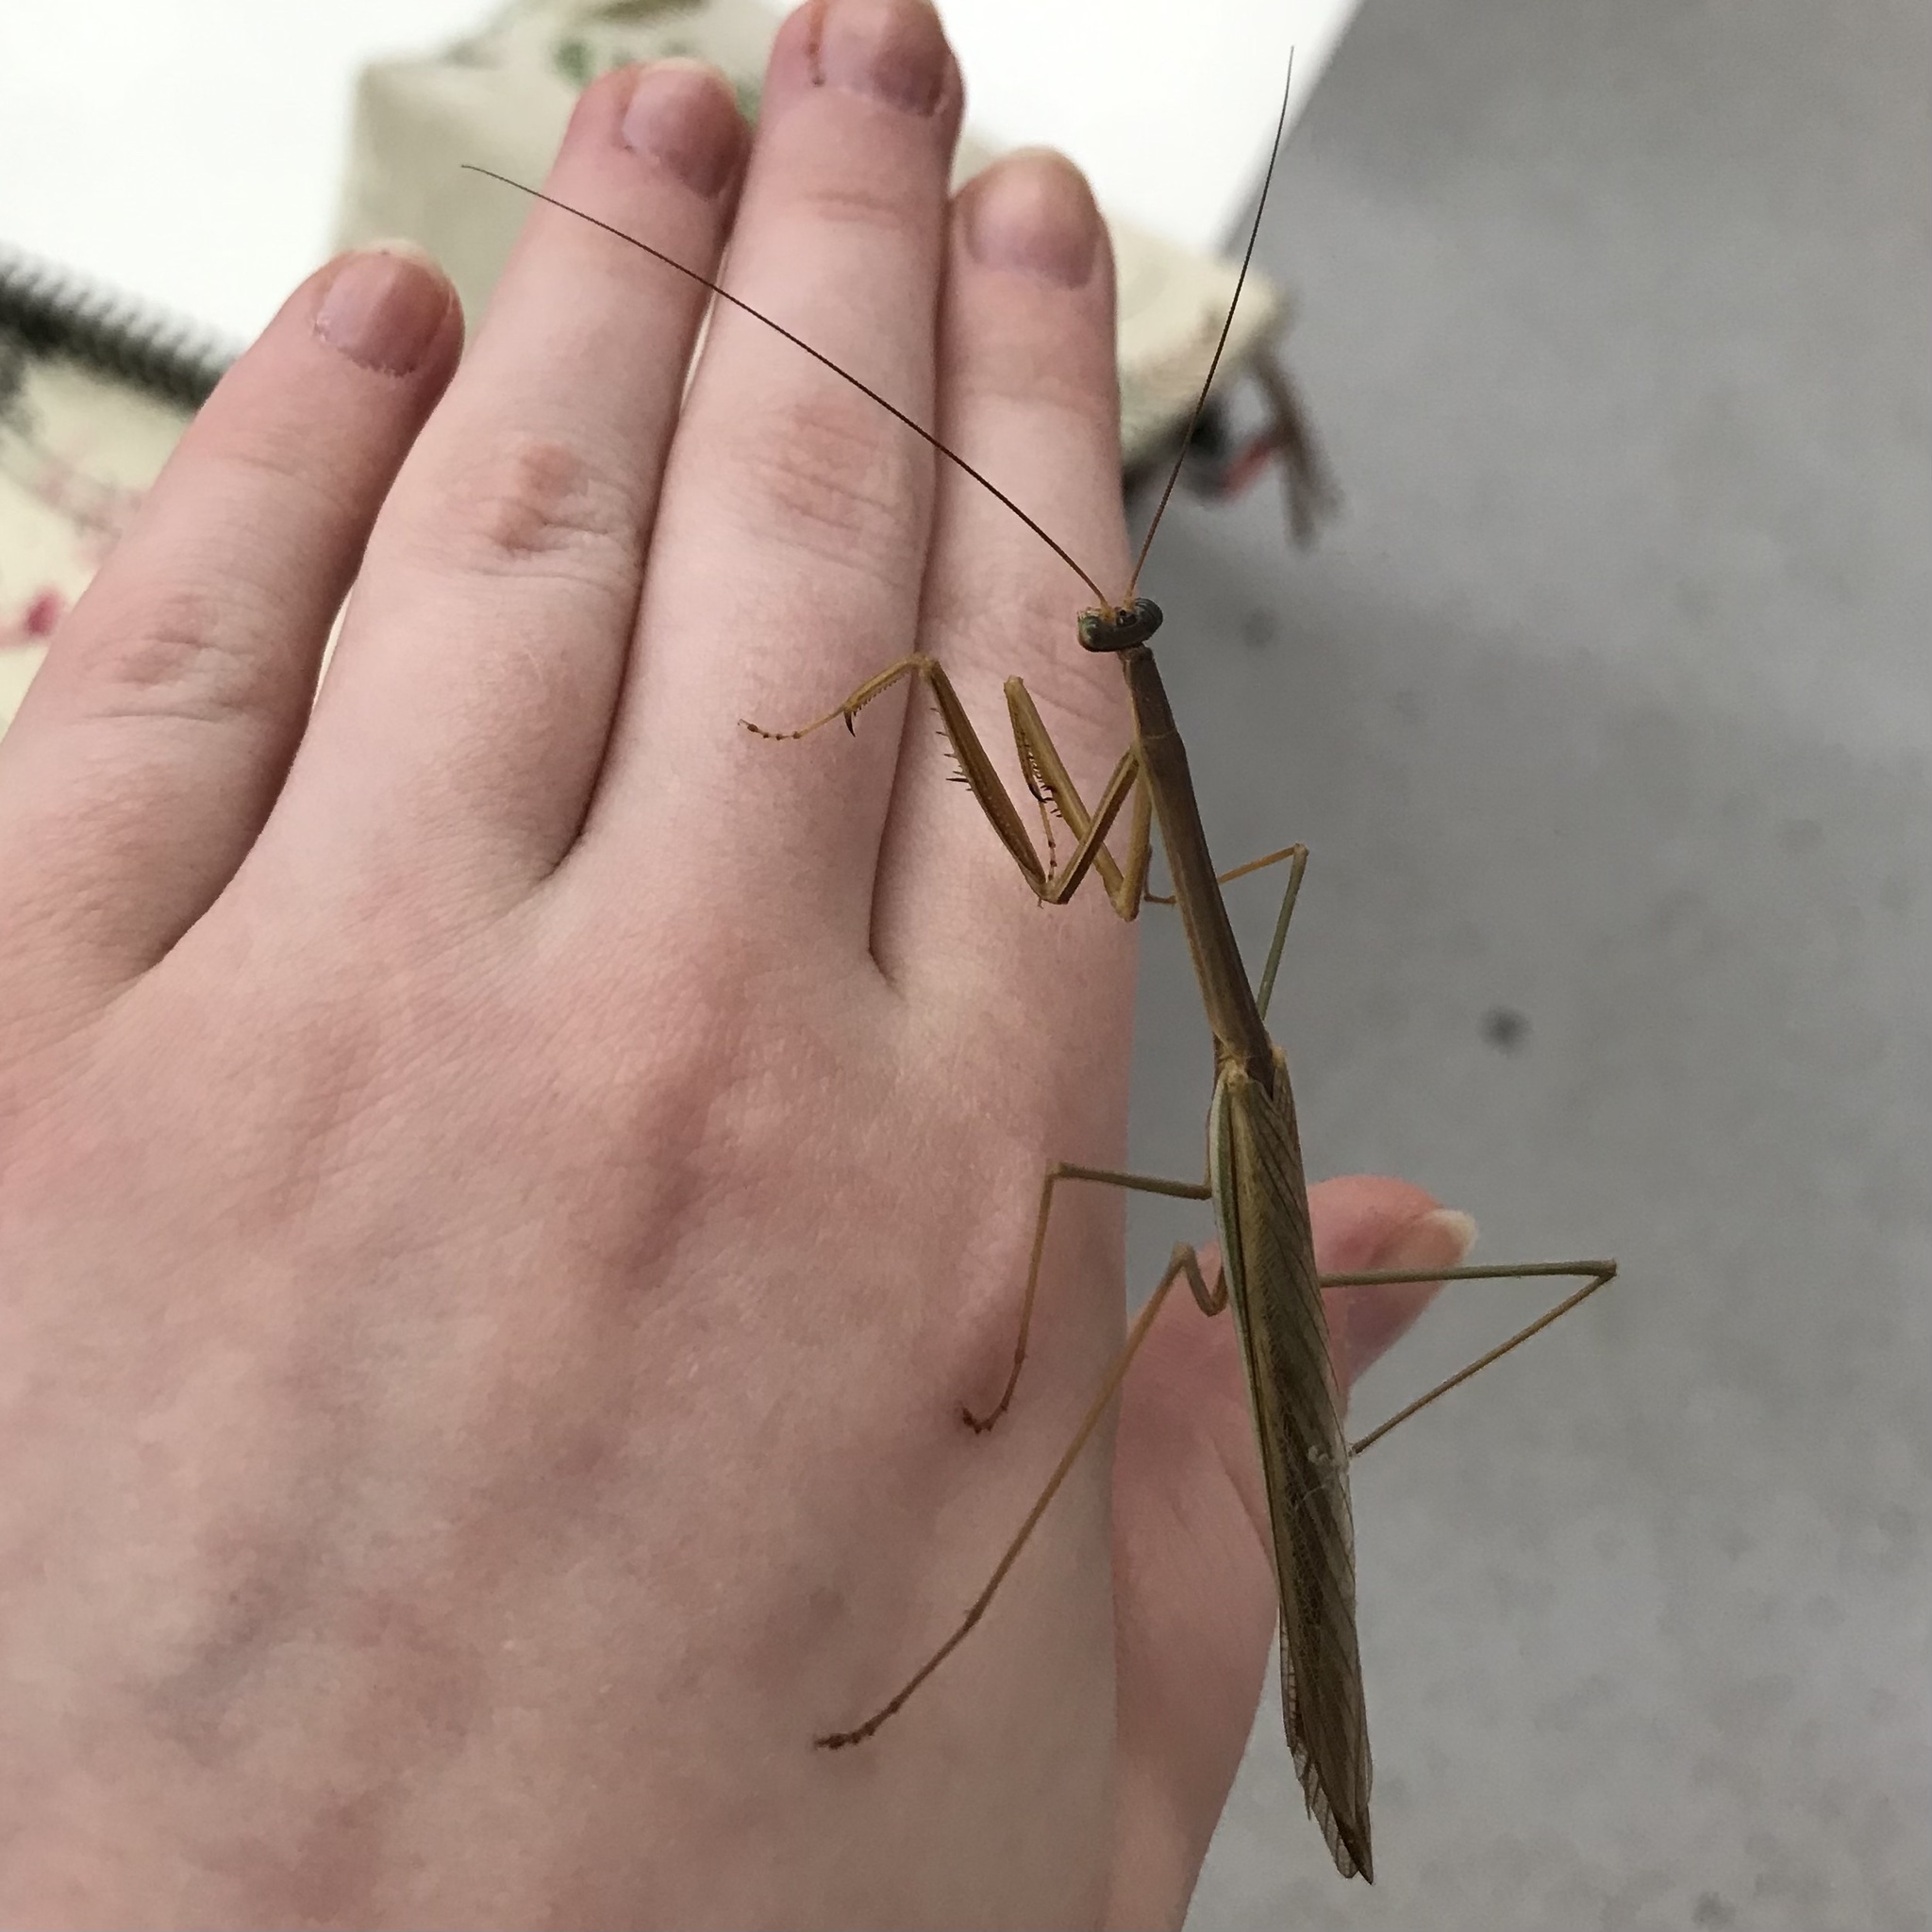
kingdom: Animalia
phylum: Arthropoda
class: Insecta
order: Mantodea
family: Mantidae
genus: Tenodera
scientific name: Tenodera australasiae
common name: Purple-winged mantis
